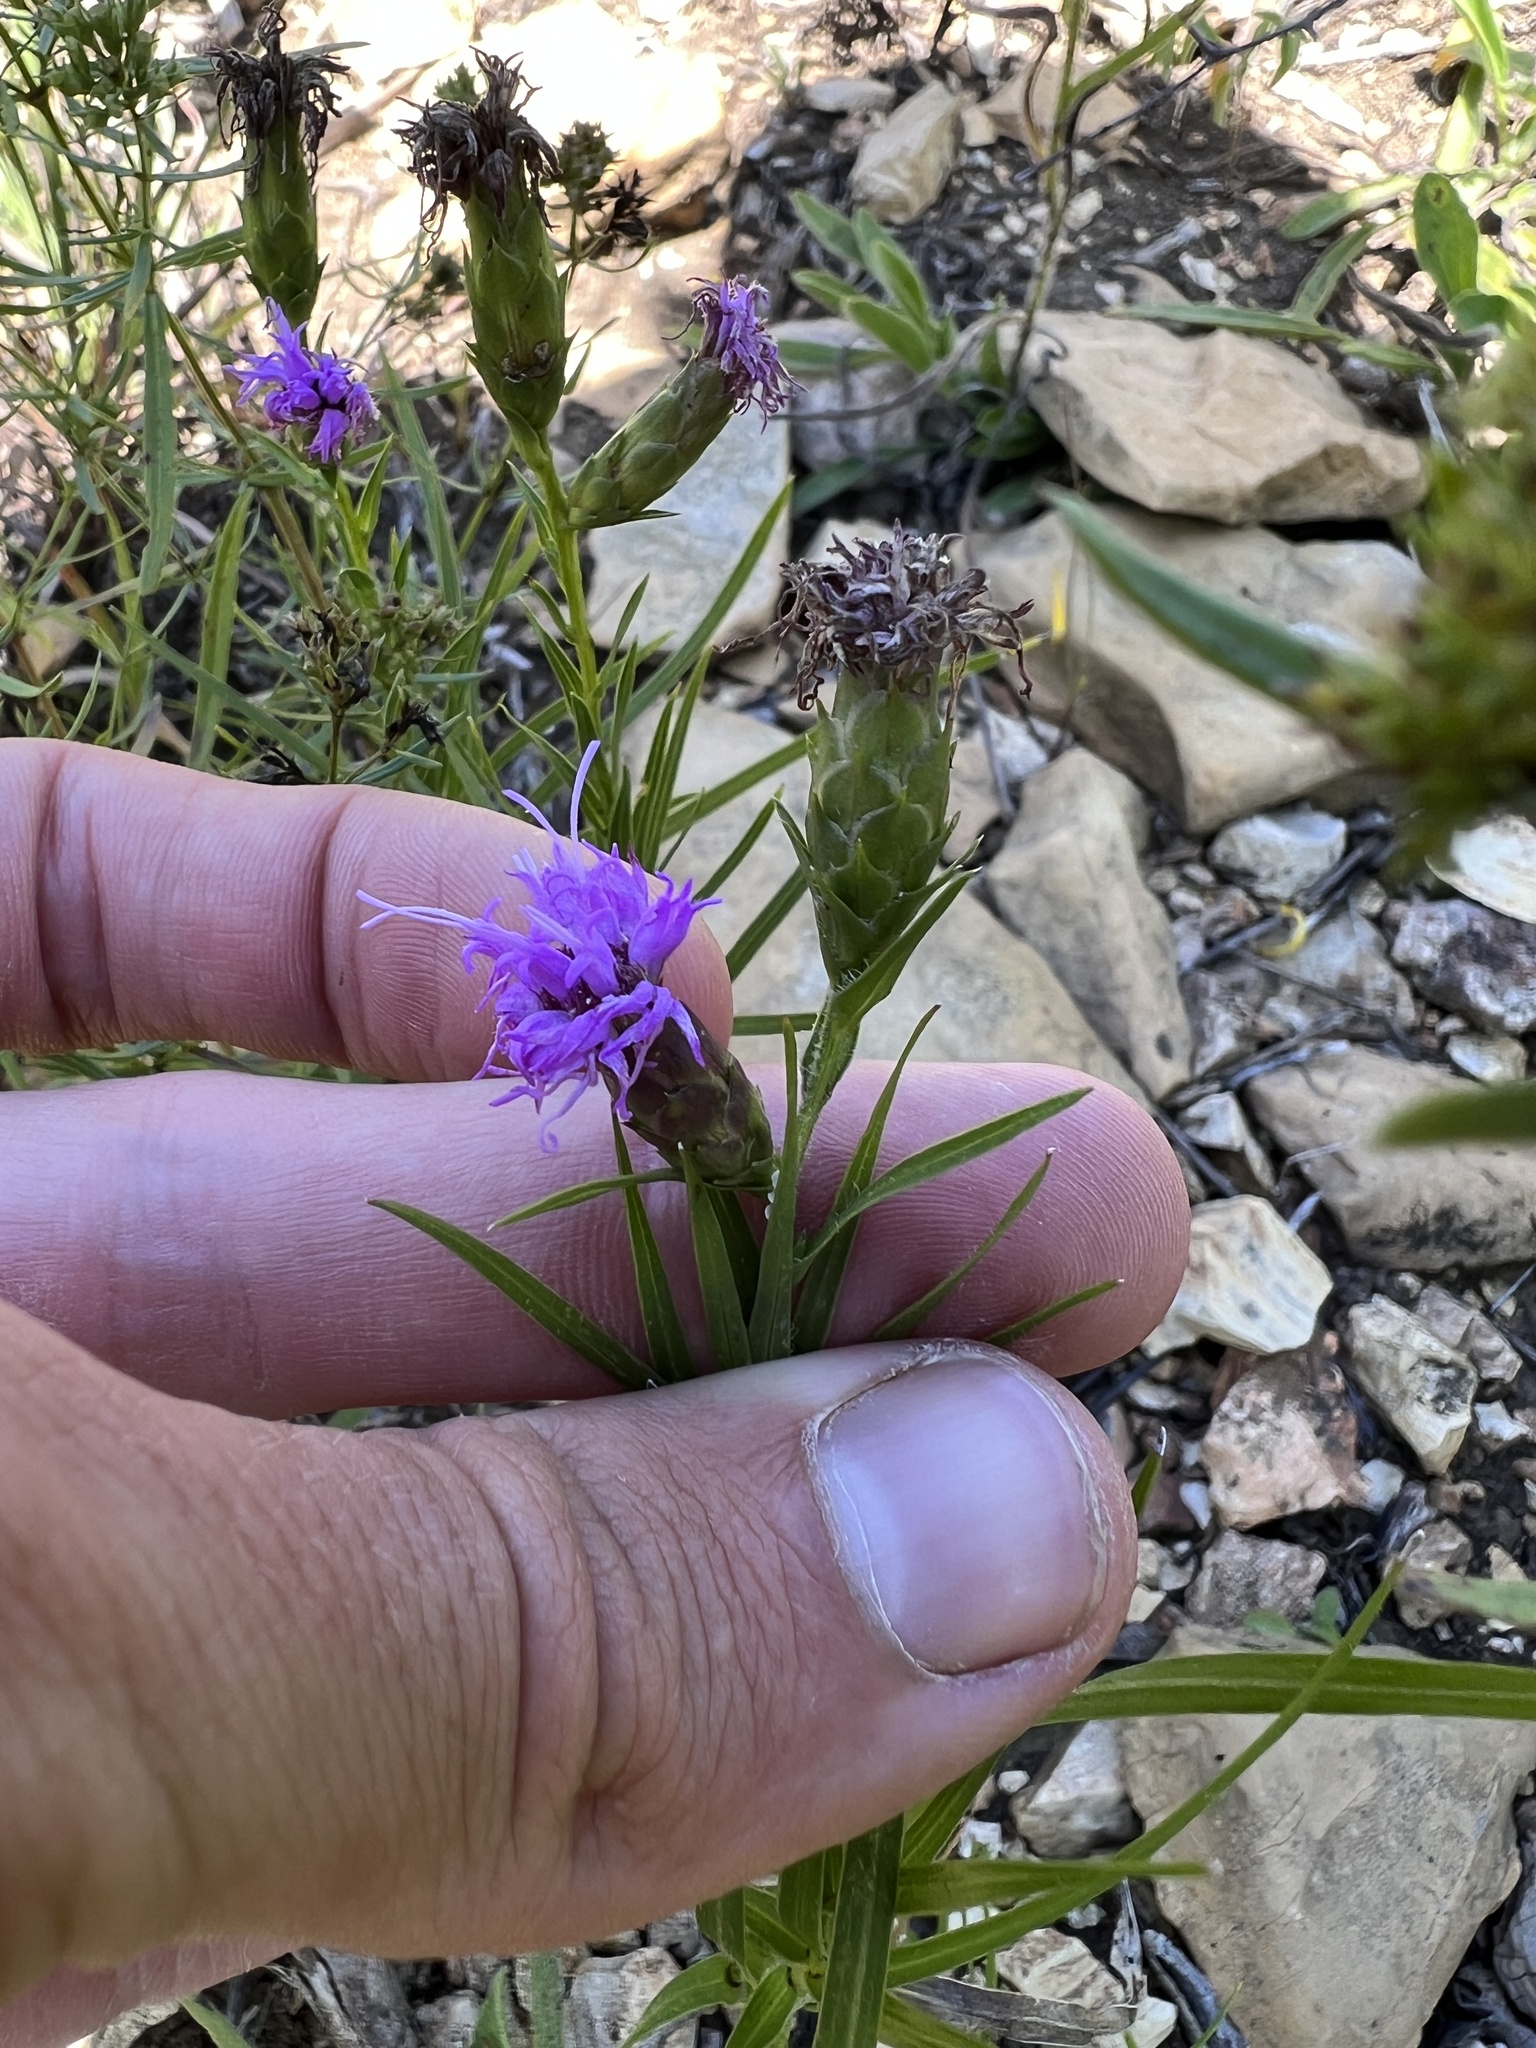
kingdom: Plantae
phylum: Tracheophyta
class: Magnoliopsida
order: Asterales
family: Asteraceae
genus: Liatris
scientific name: Liatris cylindracea
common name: Few-head blazingstar
